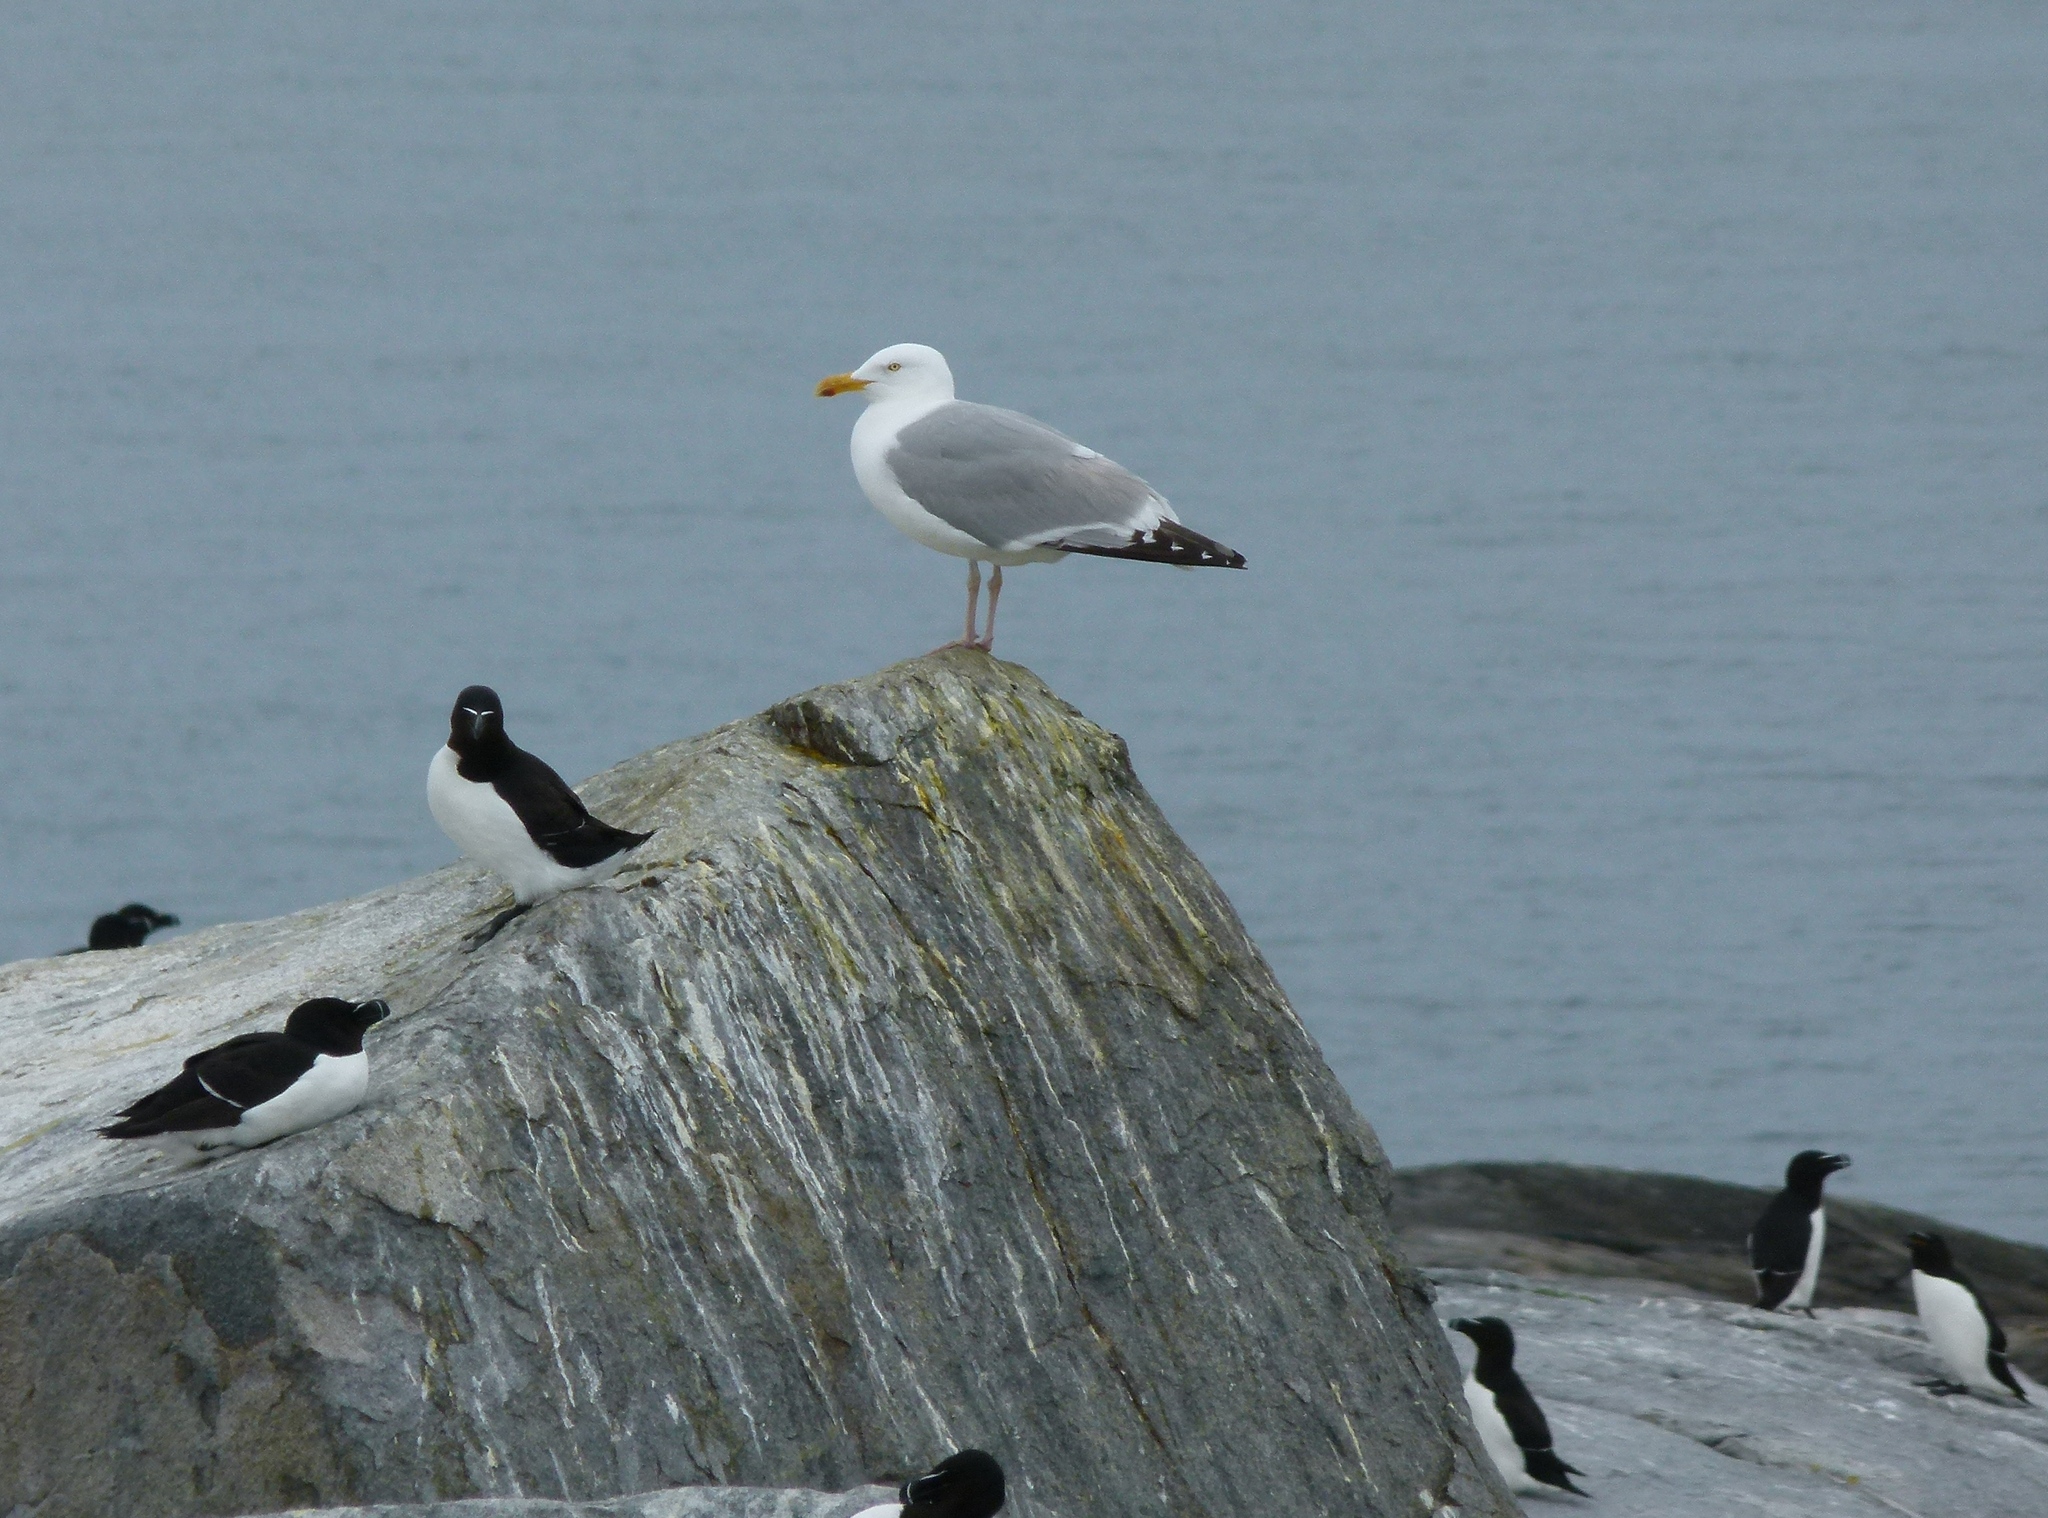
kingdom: Animalia
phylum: Chordata
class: Aves
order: Charadriiformes
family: Laridae
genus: Larus
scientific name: Larus argentatus
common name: Herring gull
